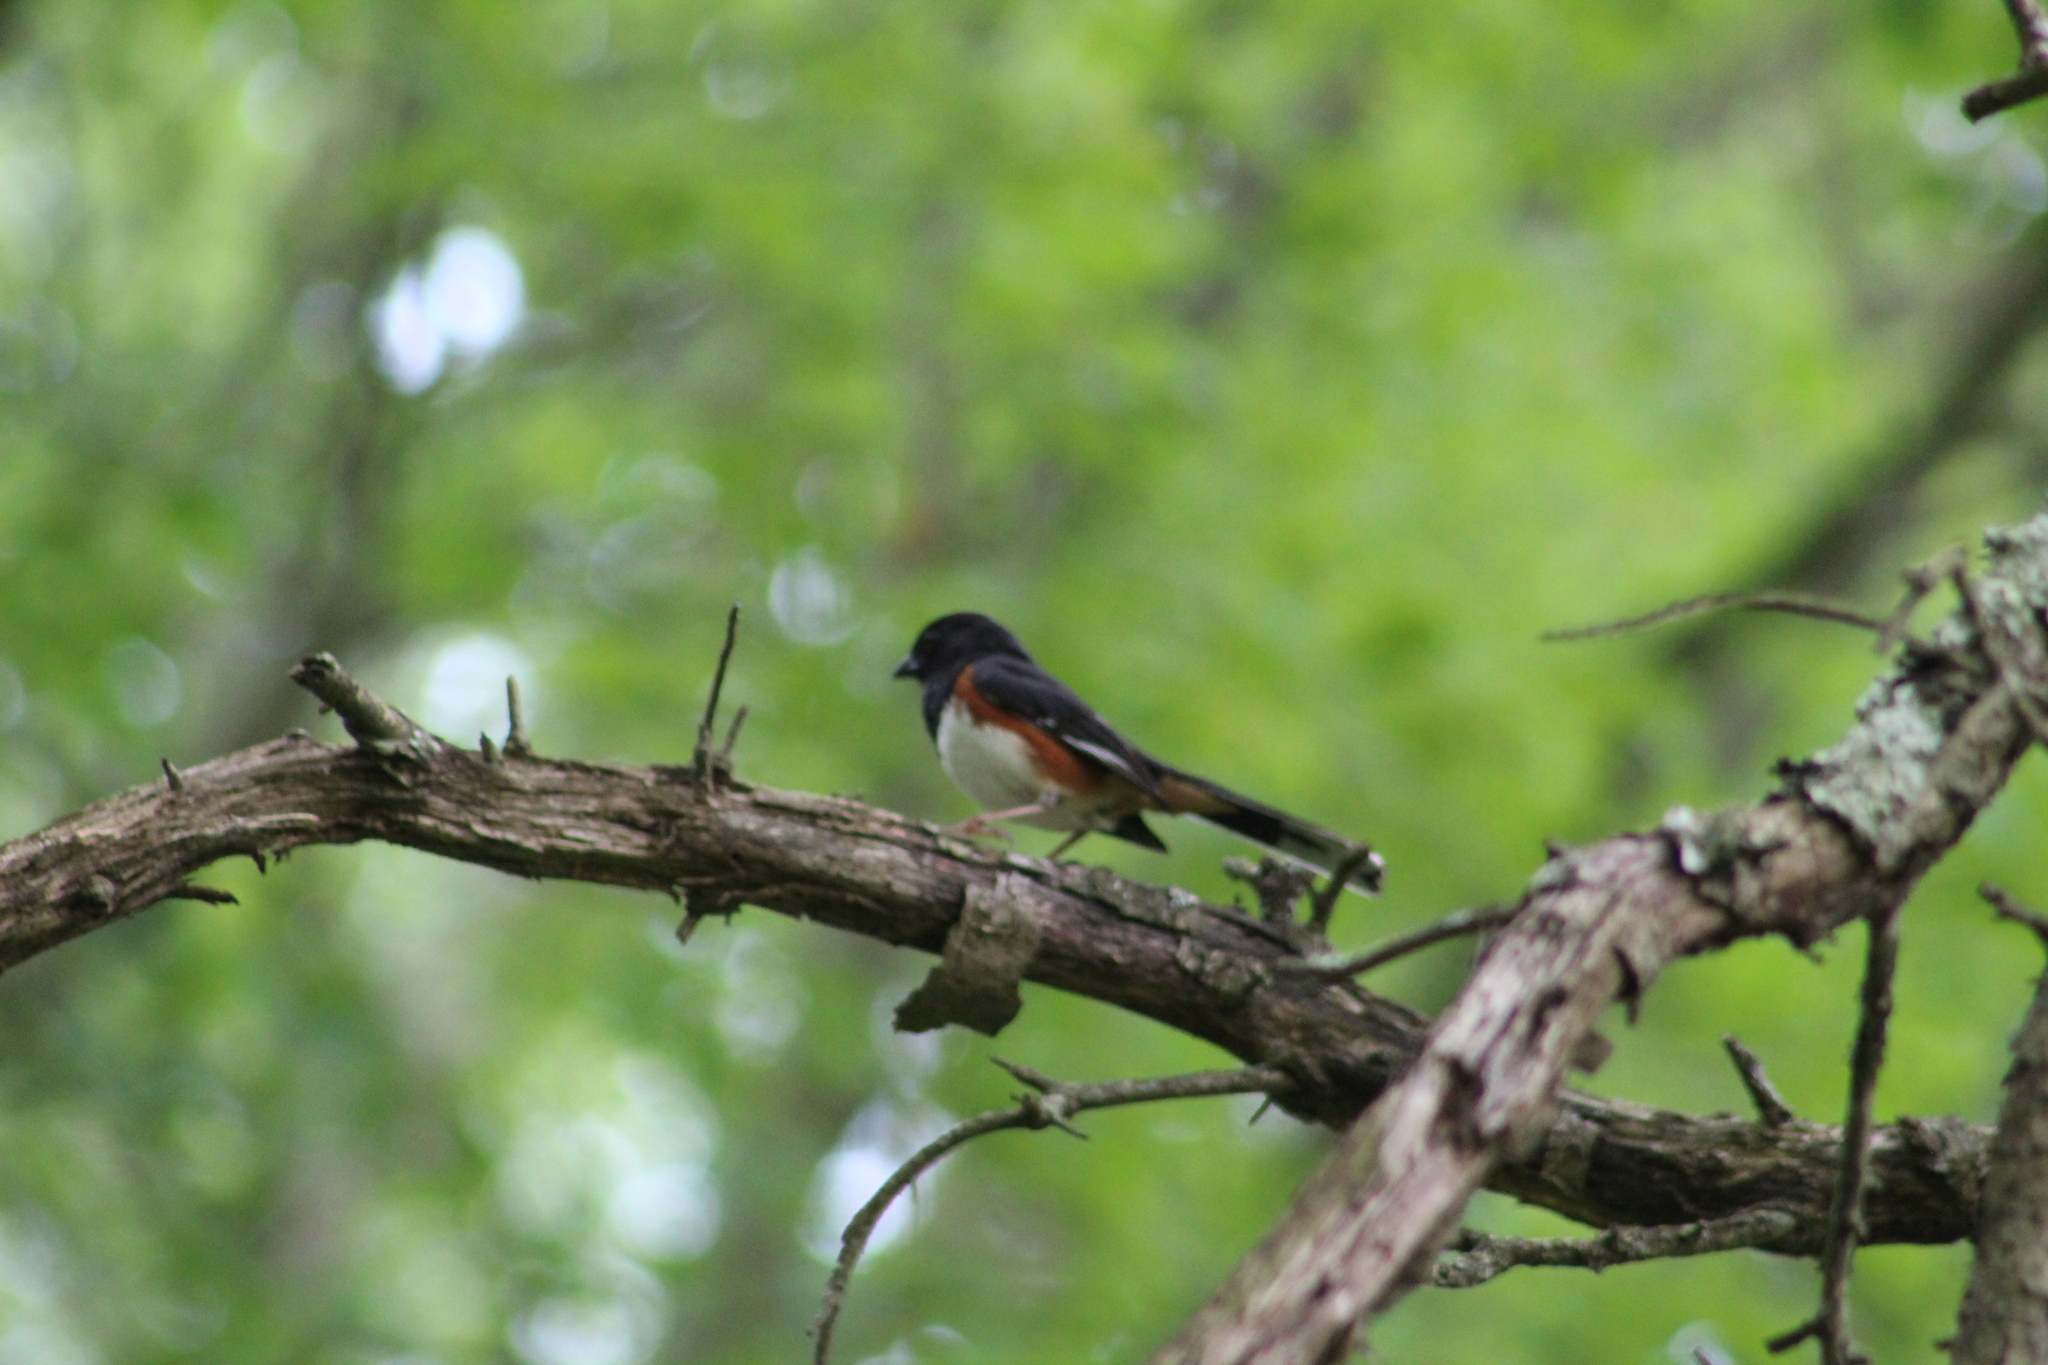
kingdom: Animalia
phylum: Chordata
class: Aves
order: Passeriformes
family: Passerellidae
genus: Pipilo
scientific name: Pipilo erythrophthalmus
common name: Eastern towhee
